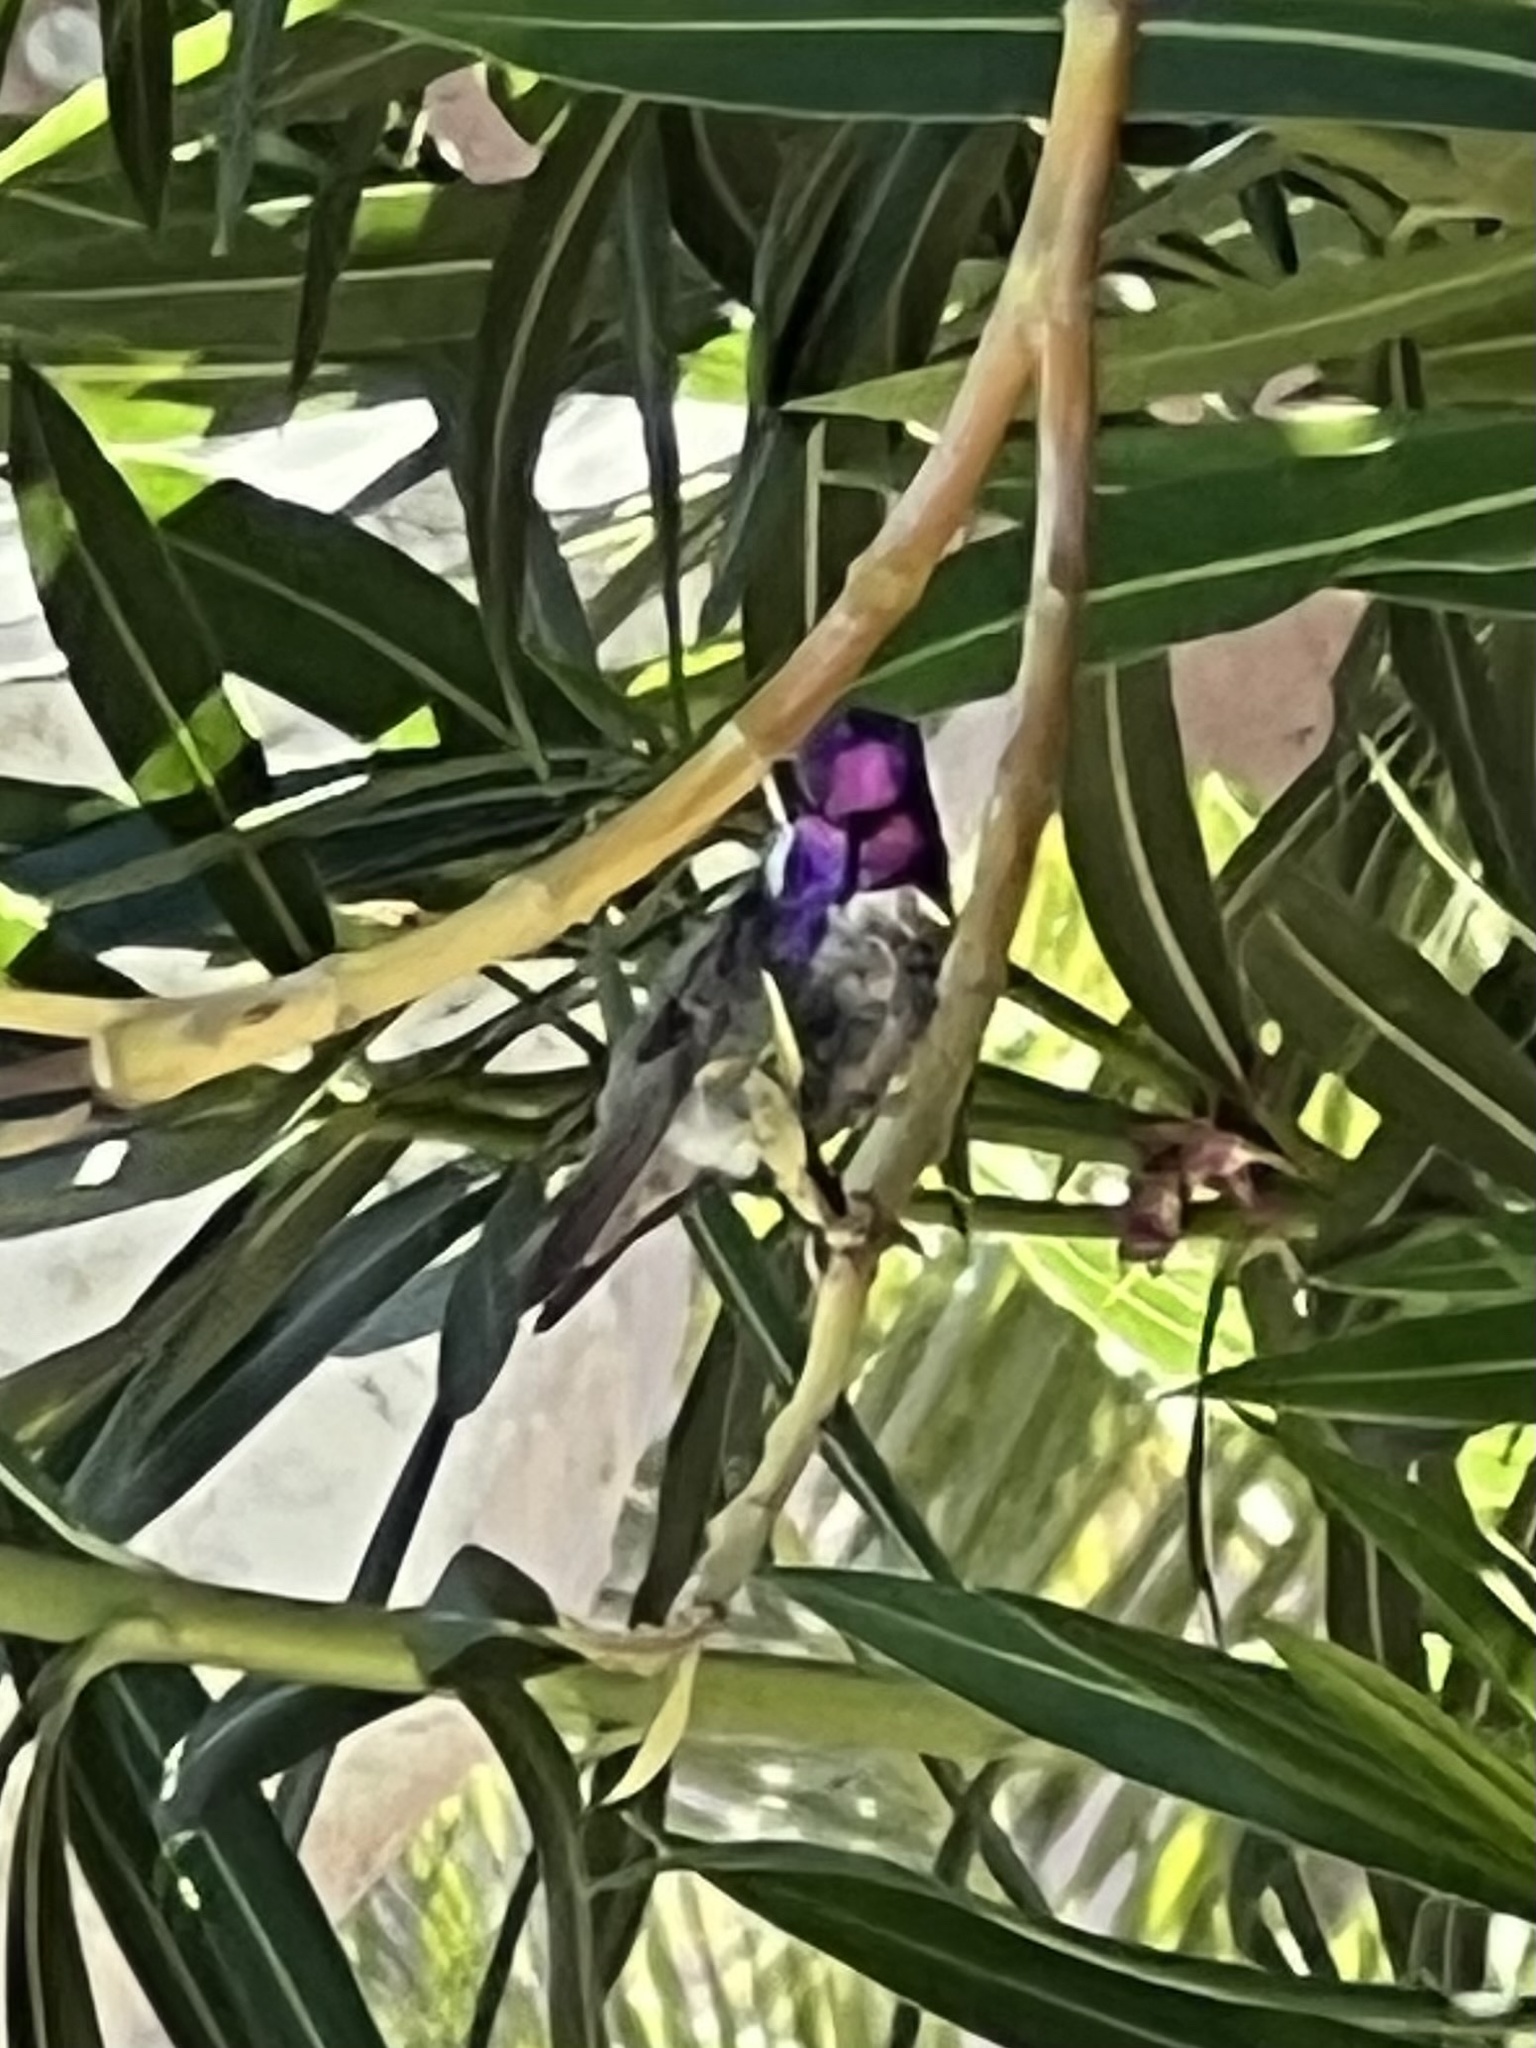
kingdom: Animalia
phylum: Chordata
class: Aves
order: Apodiformes
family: Trochilidae
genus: Calypte
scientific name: Calypte costae
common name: Costa's hummingbird
